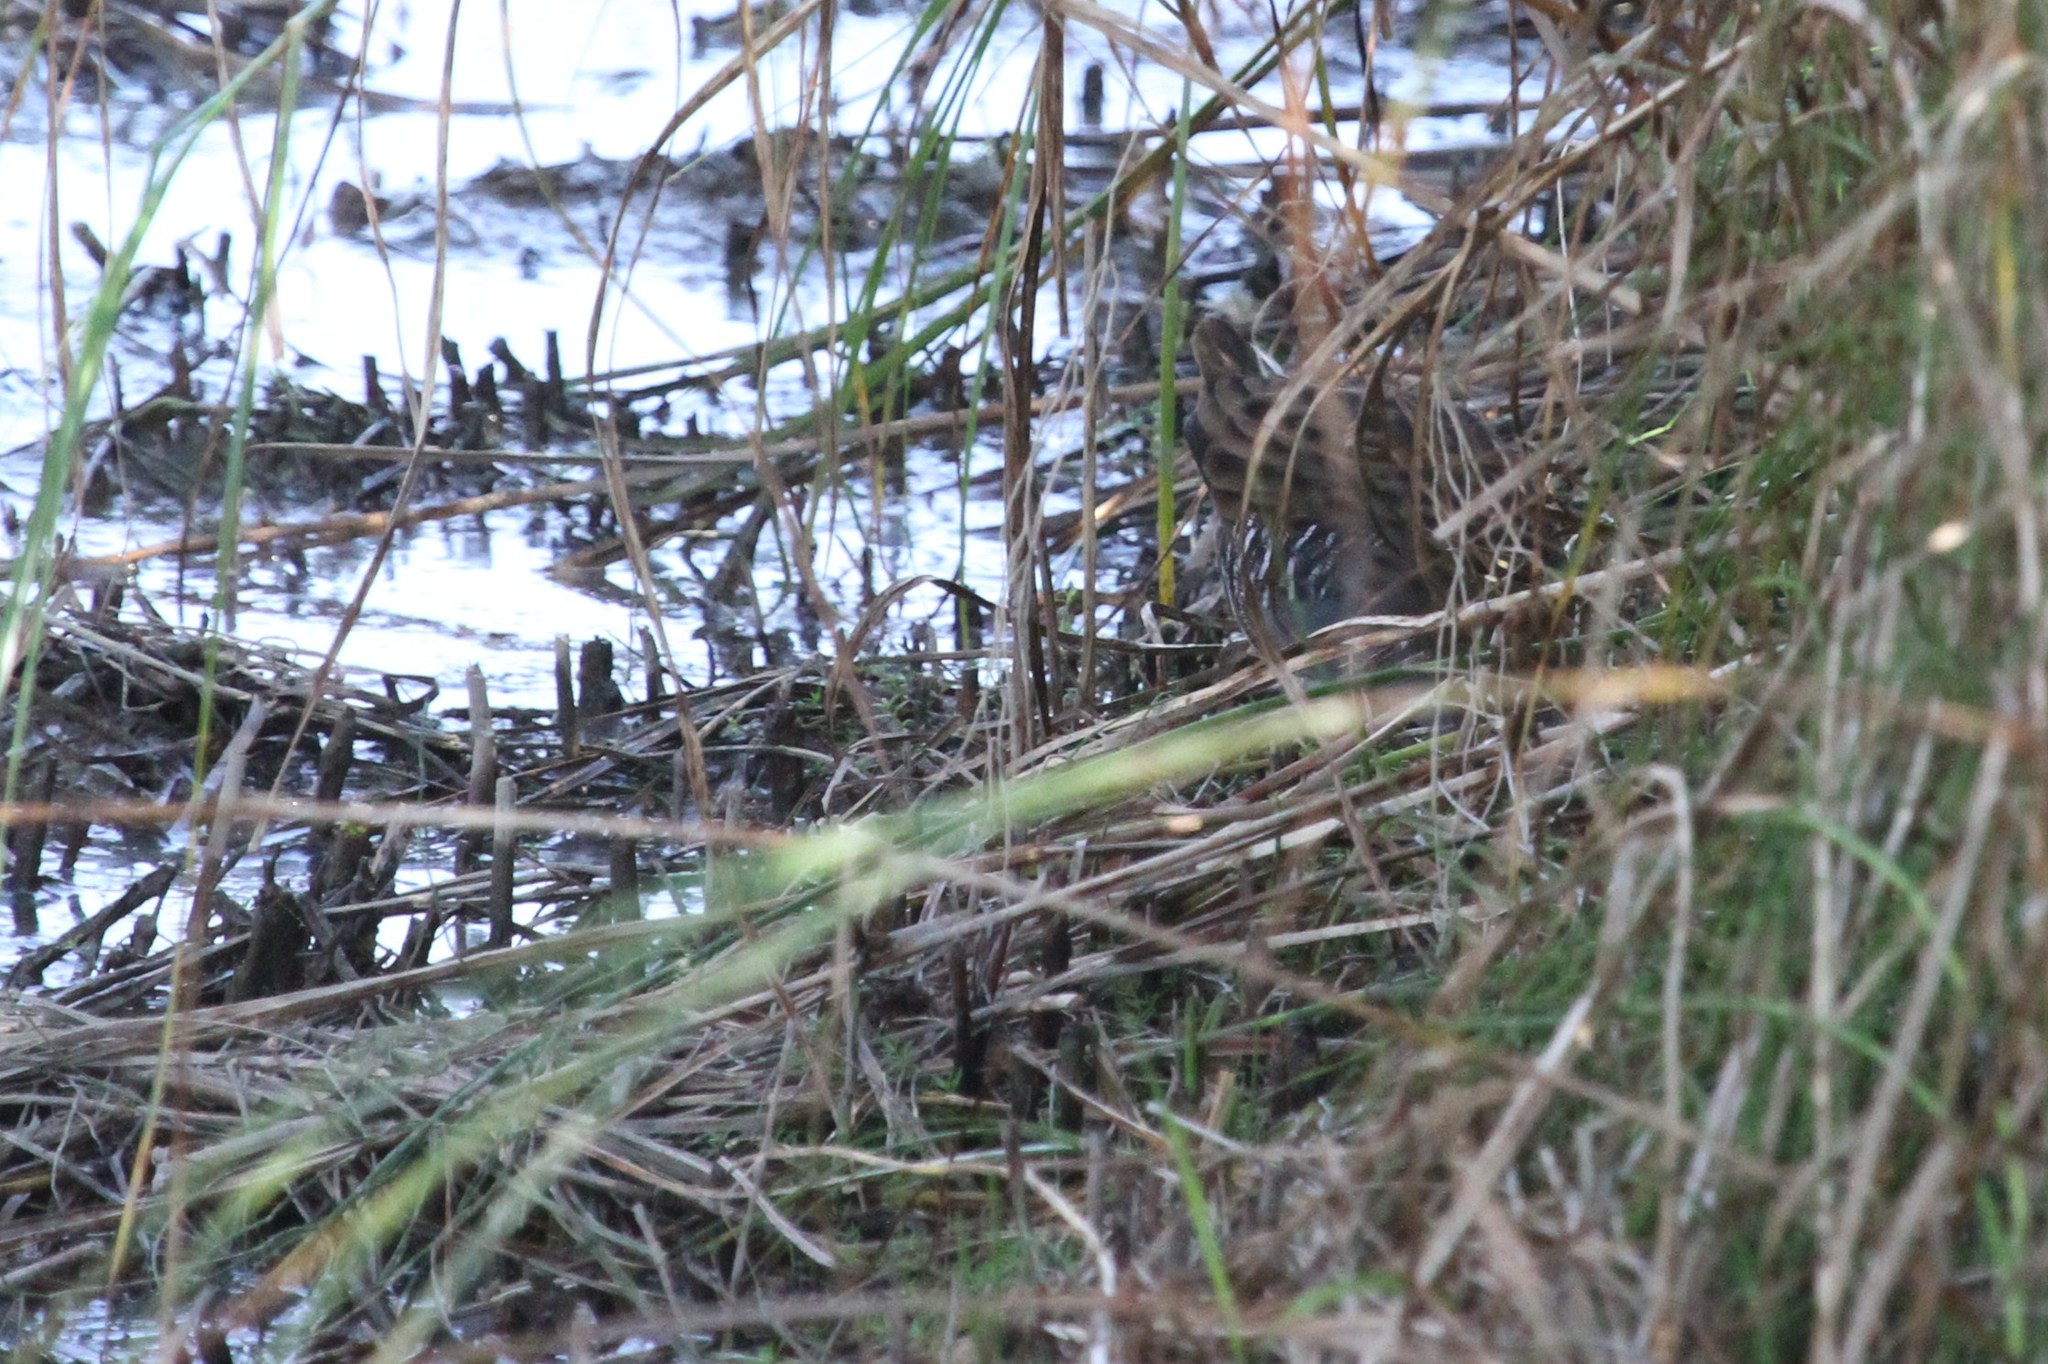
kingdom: Animalia
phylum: Chordata
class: Aves
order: Gruiformes
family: Rallidae
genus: Rallus
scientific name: Rallus aquaticus
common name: Water rail
